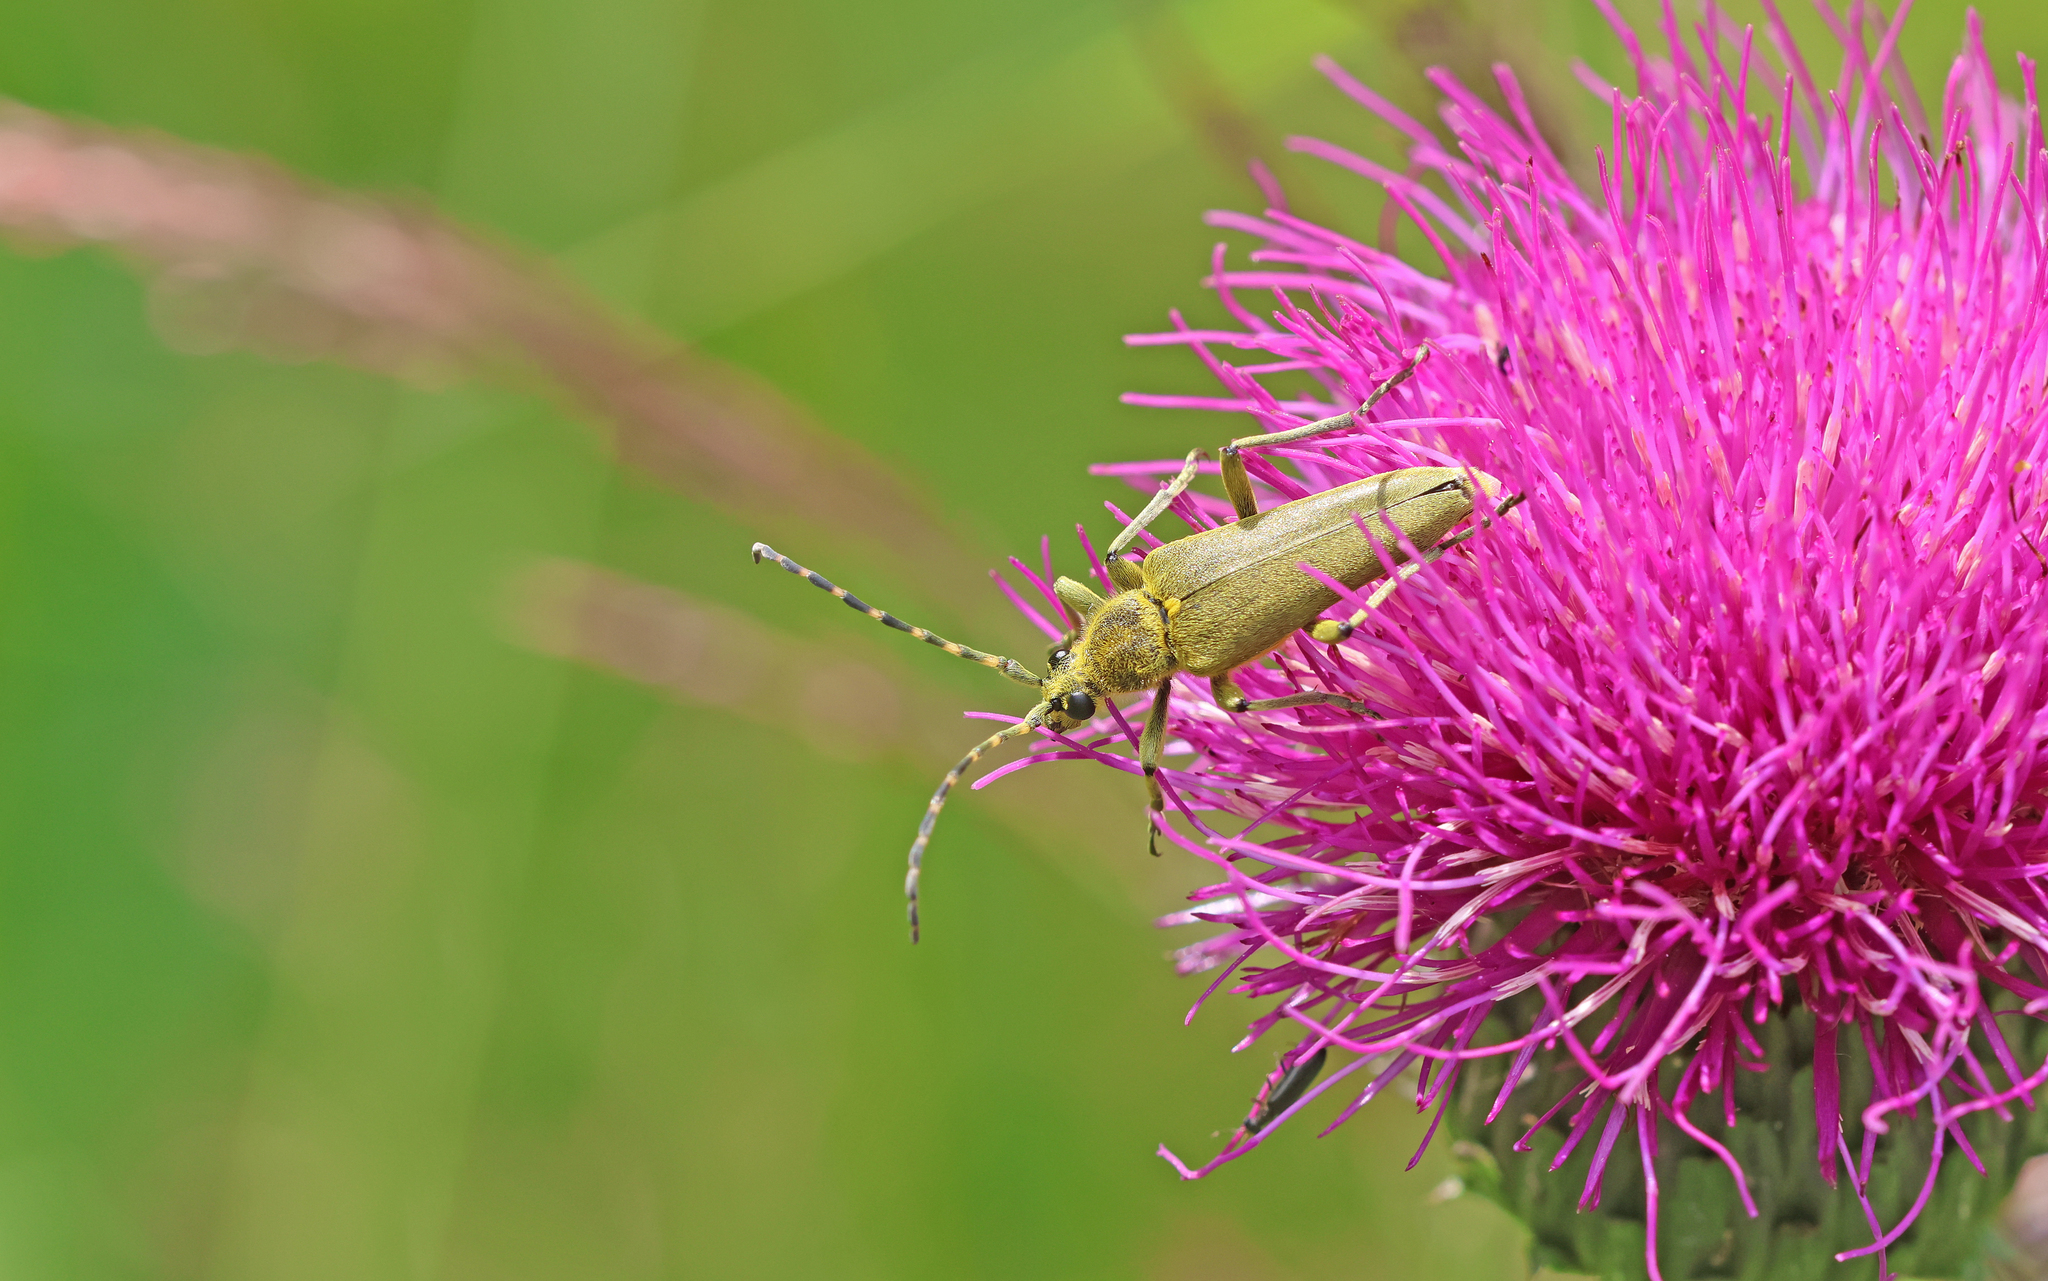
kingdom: Animalia
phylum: Arthropoda
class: Insecta
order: Coleoptera
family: Cerambycidae
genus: Lepturobosca
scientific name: Lepturobosca virens
